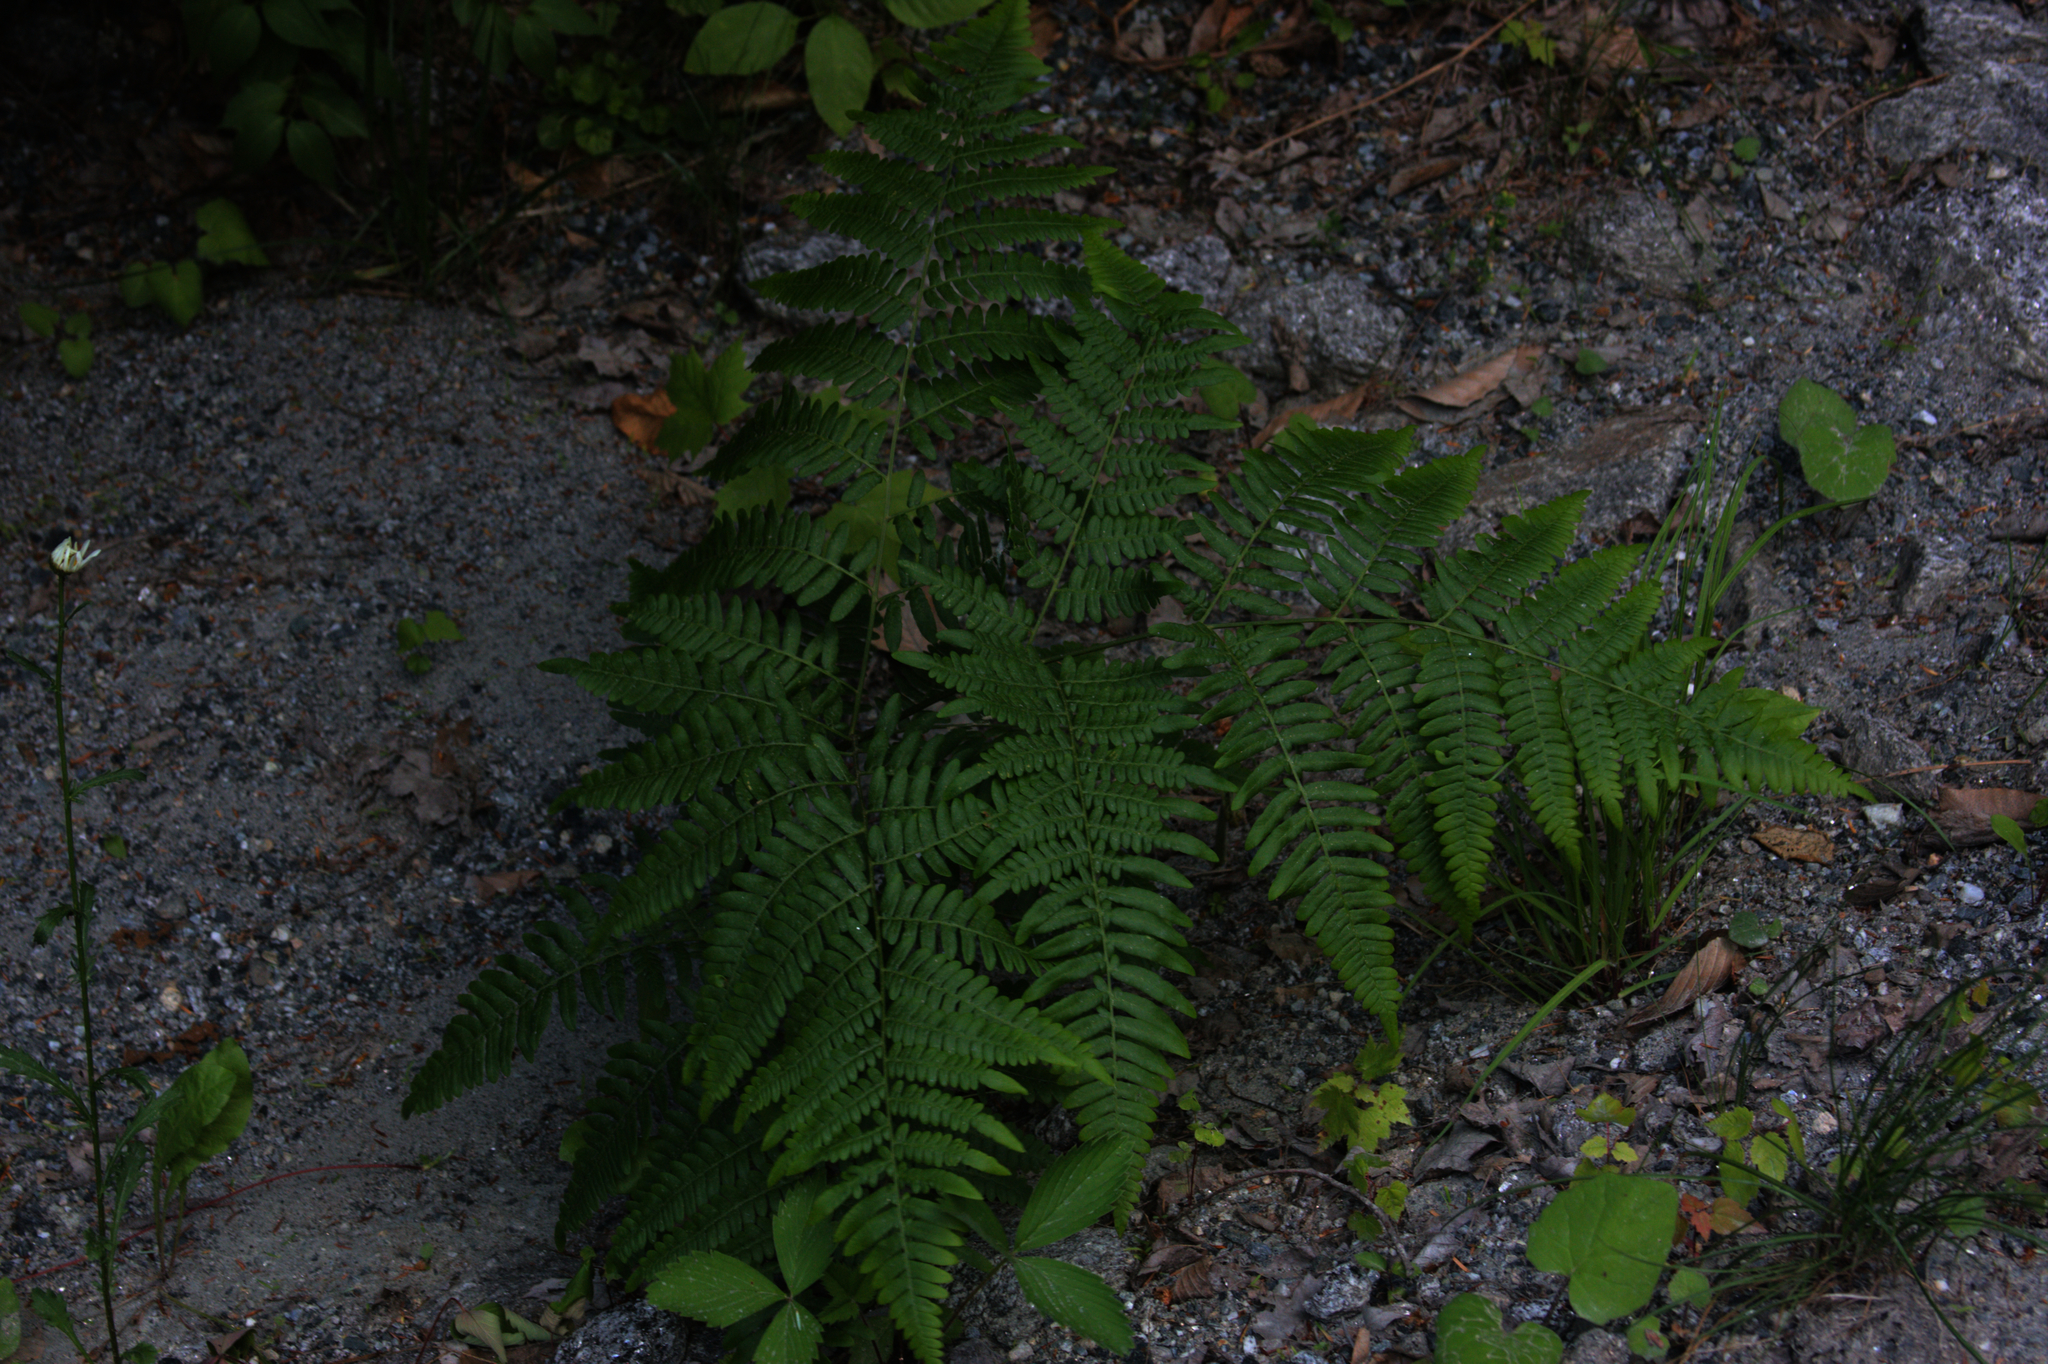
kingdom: Plantae
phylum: Tracheophyta
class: Polypodiopsida
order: Polypodiales
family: Dennstaedtiaceae
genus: Pteridium
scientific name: Pteridium aquilinum
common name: Bracken
